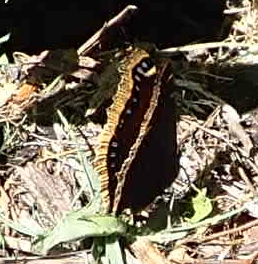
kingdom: Animalia
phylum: Arthropoda
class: Insecta
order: Lepidoptera
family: Nymphalidae
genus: Nymphalis
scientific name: Nymphalis antiopa
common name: Camberwell beauty
